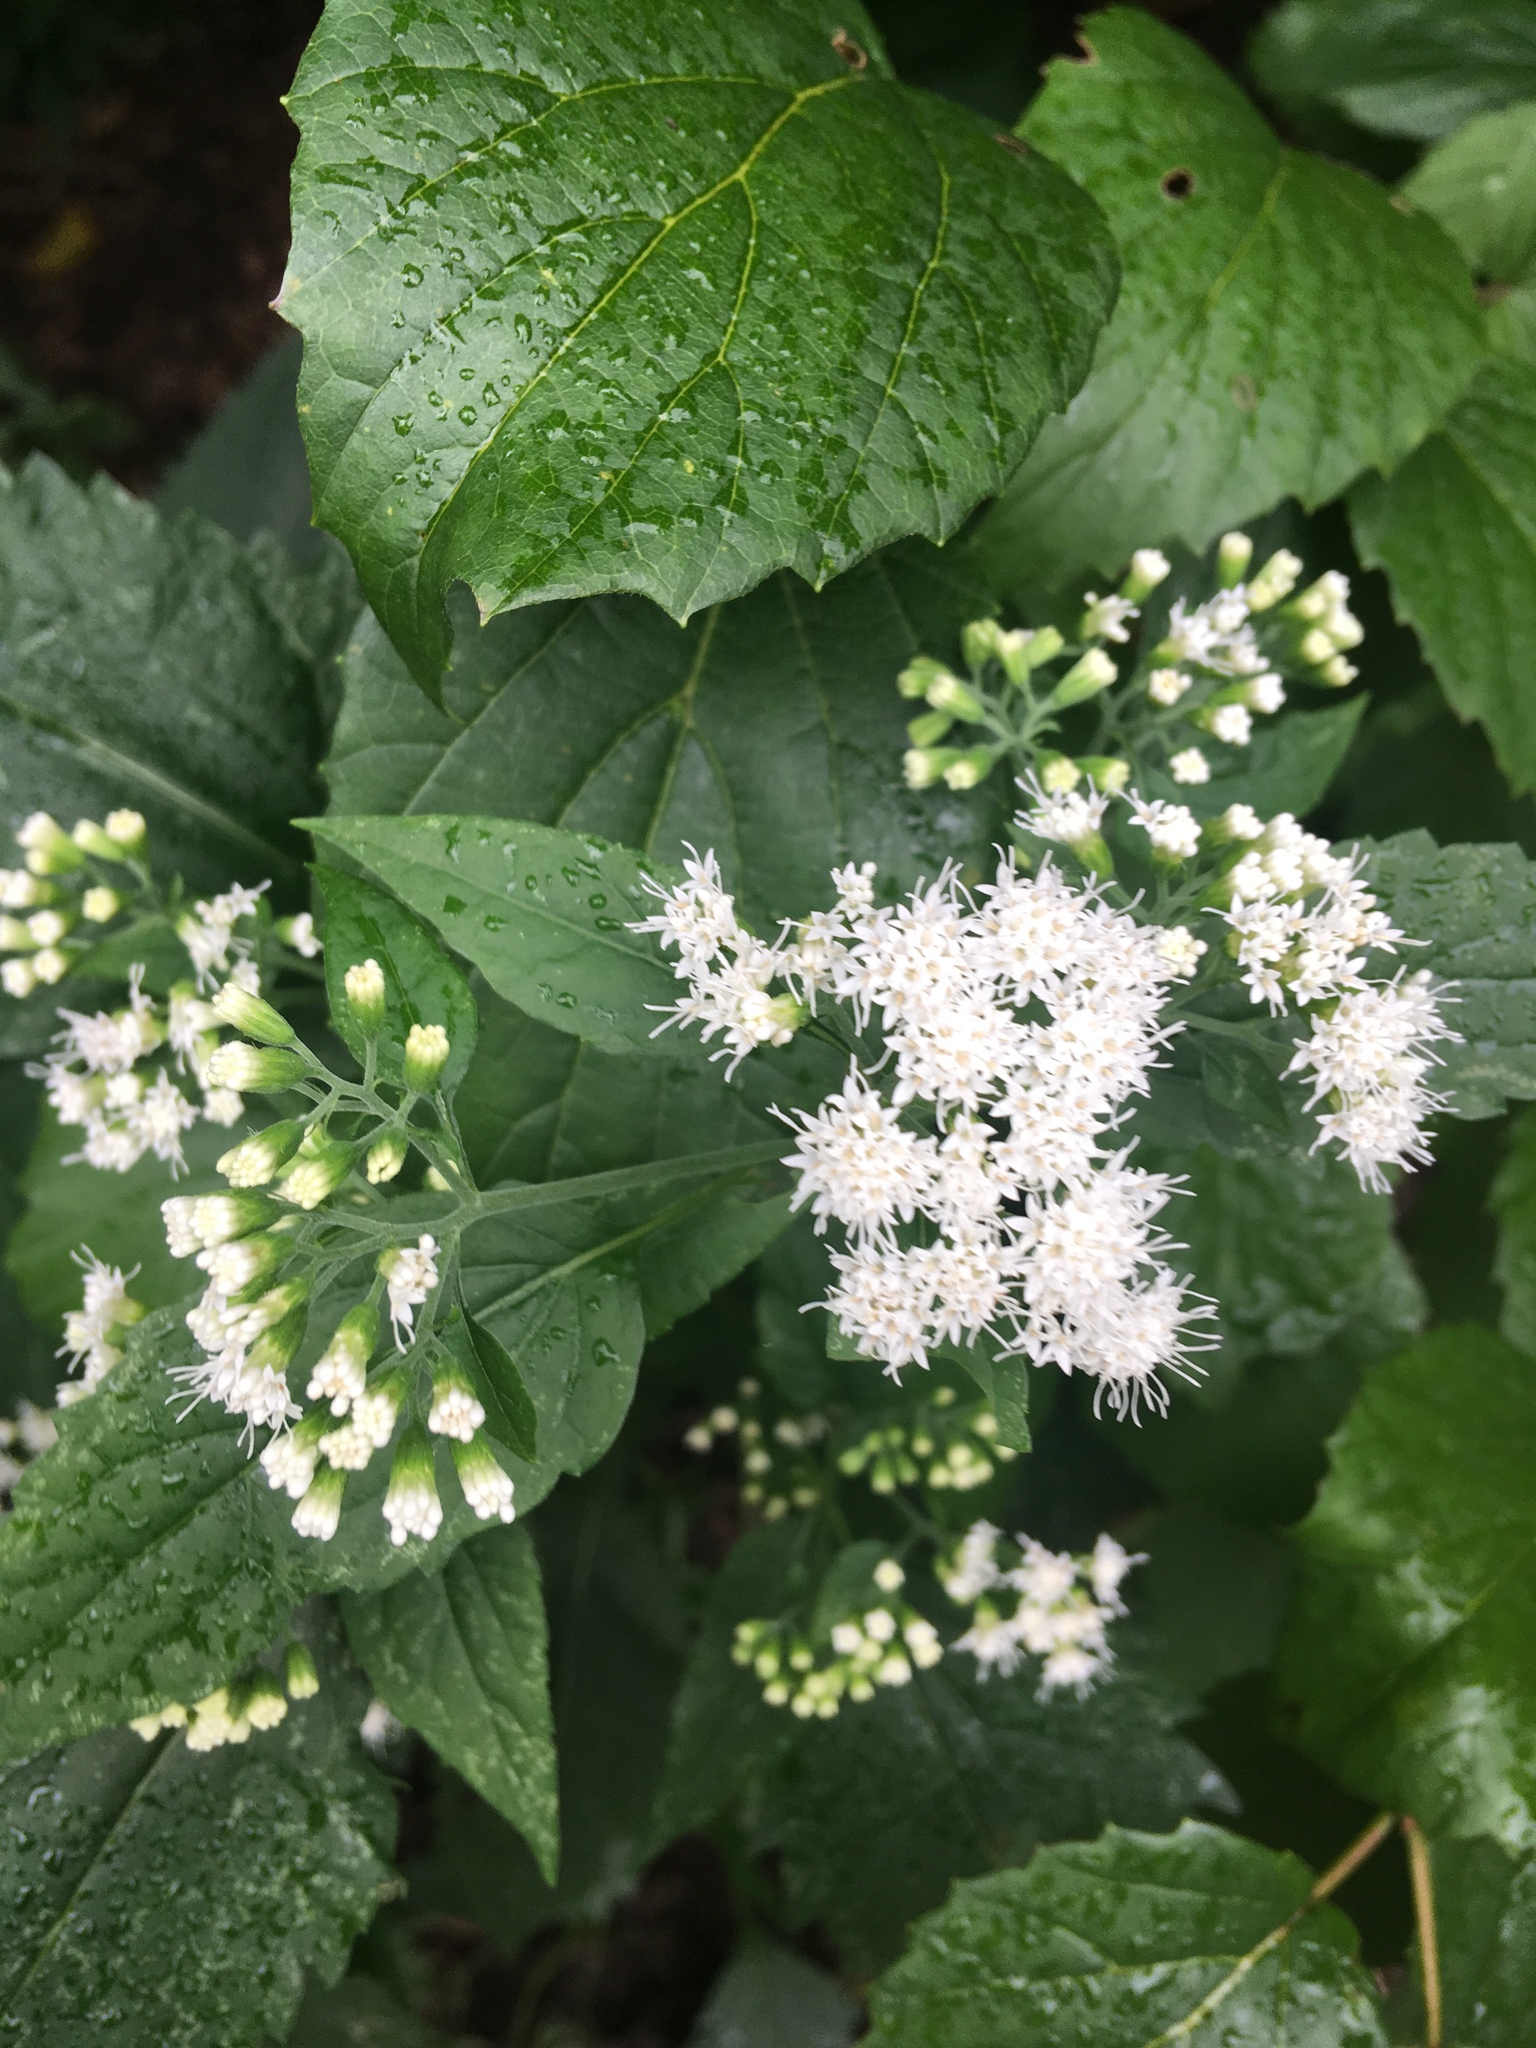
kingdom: Plantae
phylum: Tracheophyta
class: Magnoliopsida
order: Asterales
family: Asteraceae
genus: Ageratina
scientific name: Ageratina altissima
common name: White snakeroot
